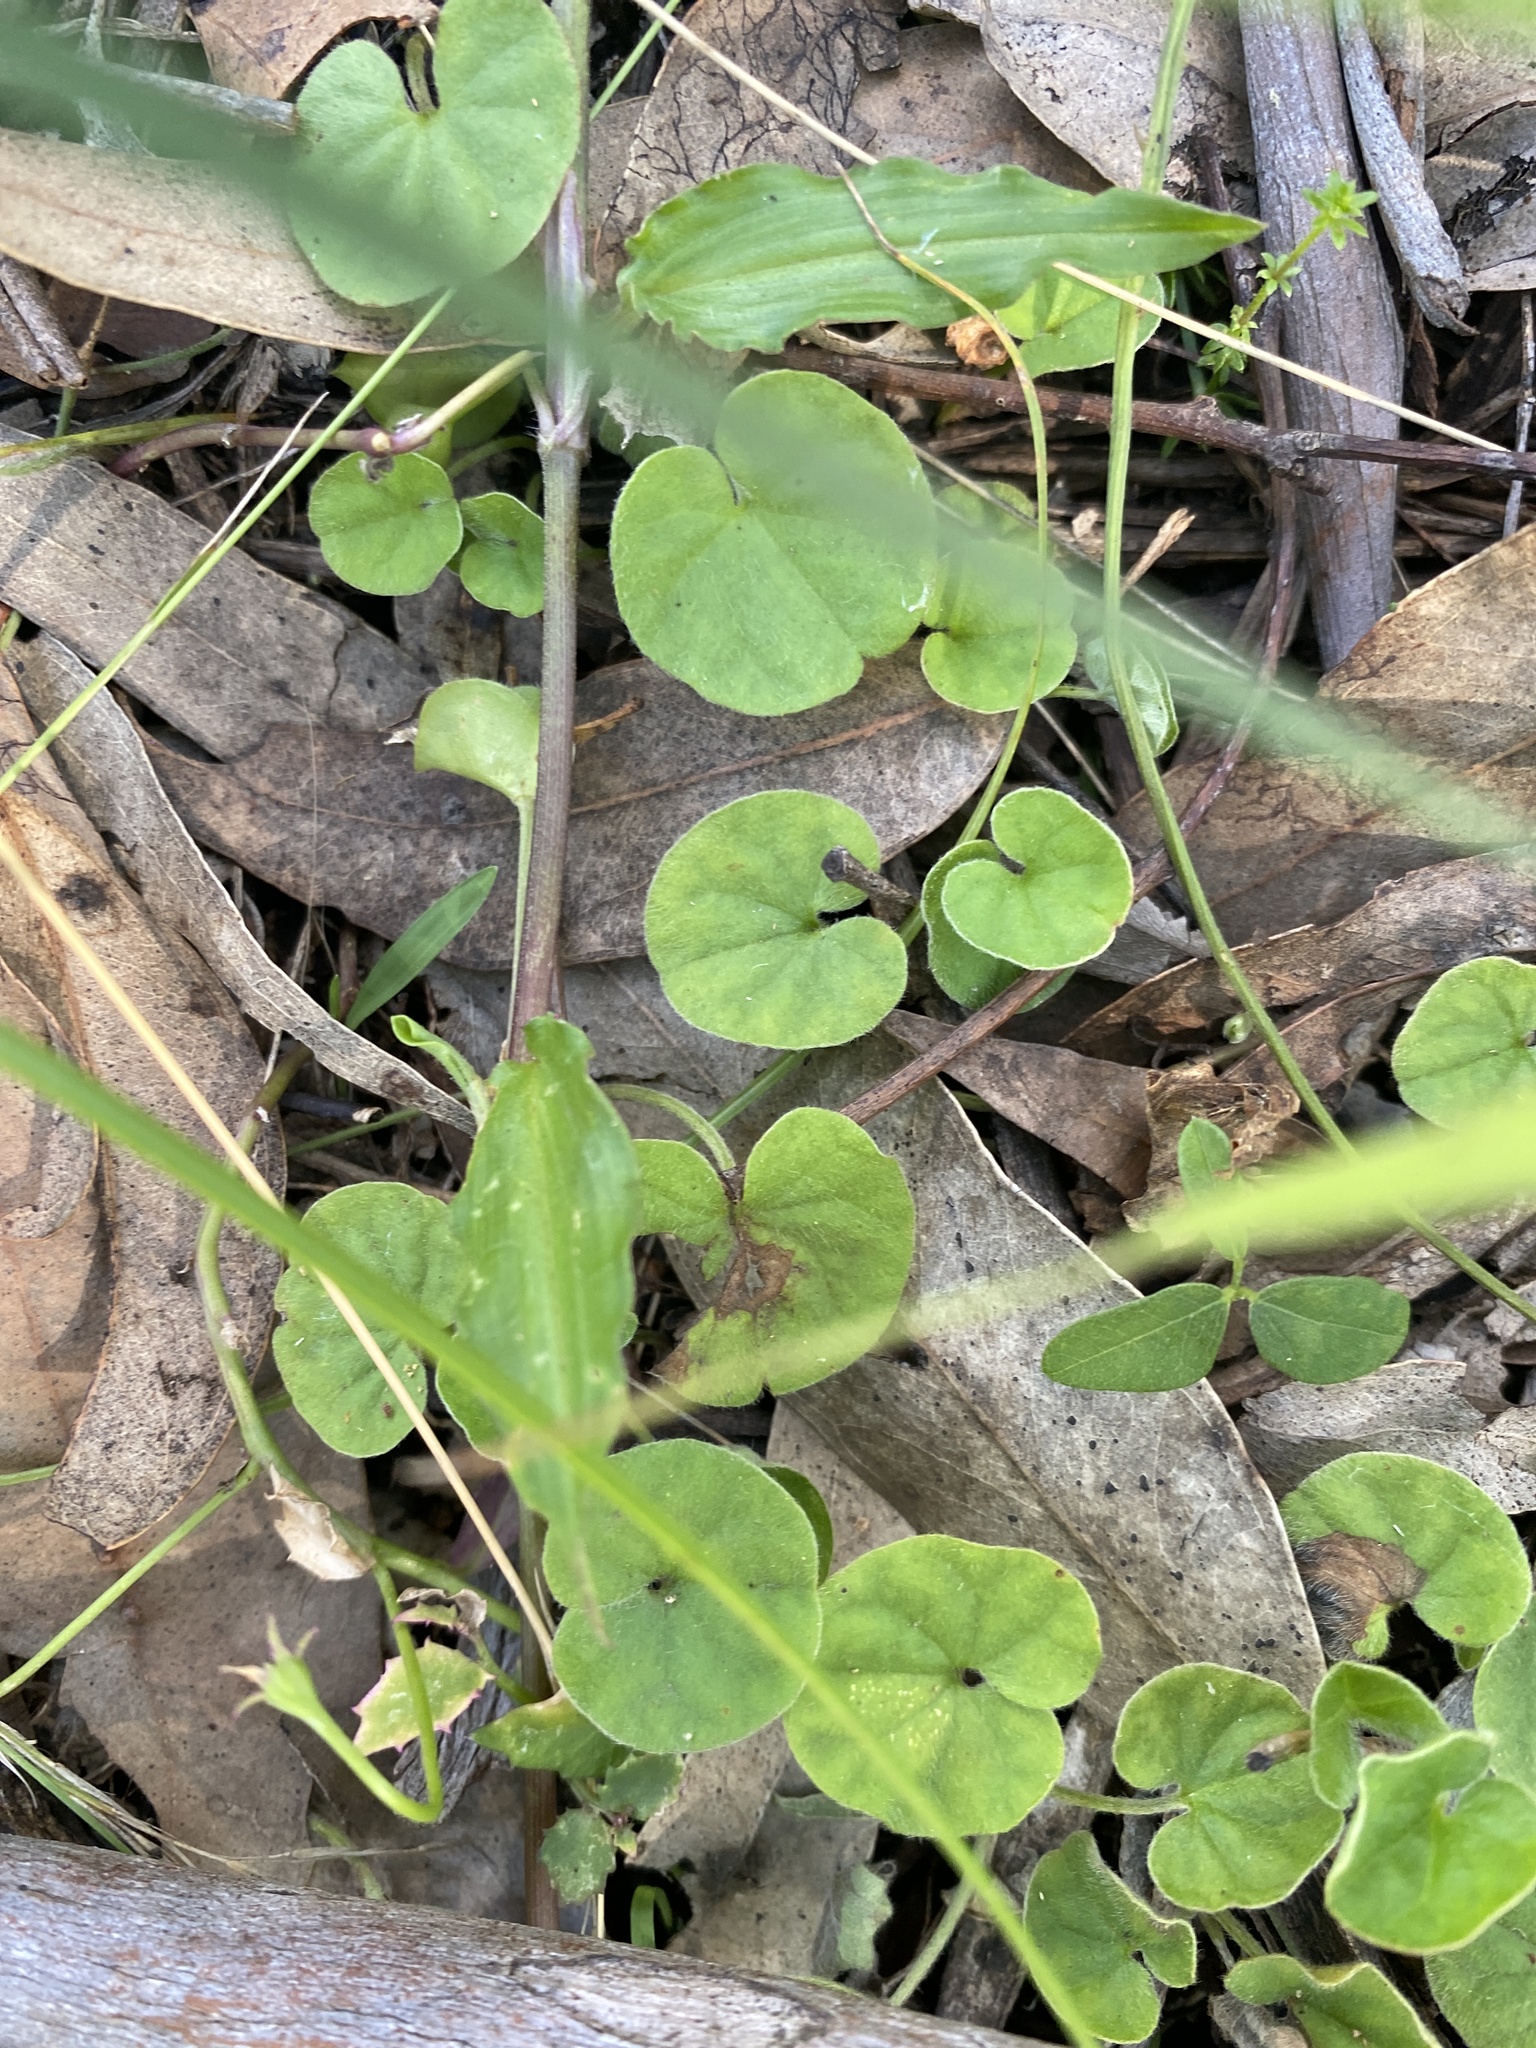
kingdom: Plantae
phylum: Tracheophyta
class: Magnoliopsida
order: Solanales
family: Convolvulaceae
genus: Dichondra
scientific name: Dichondra repens
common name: Kidneyweed
